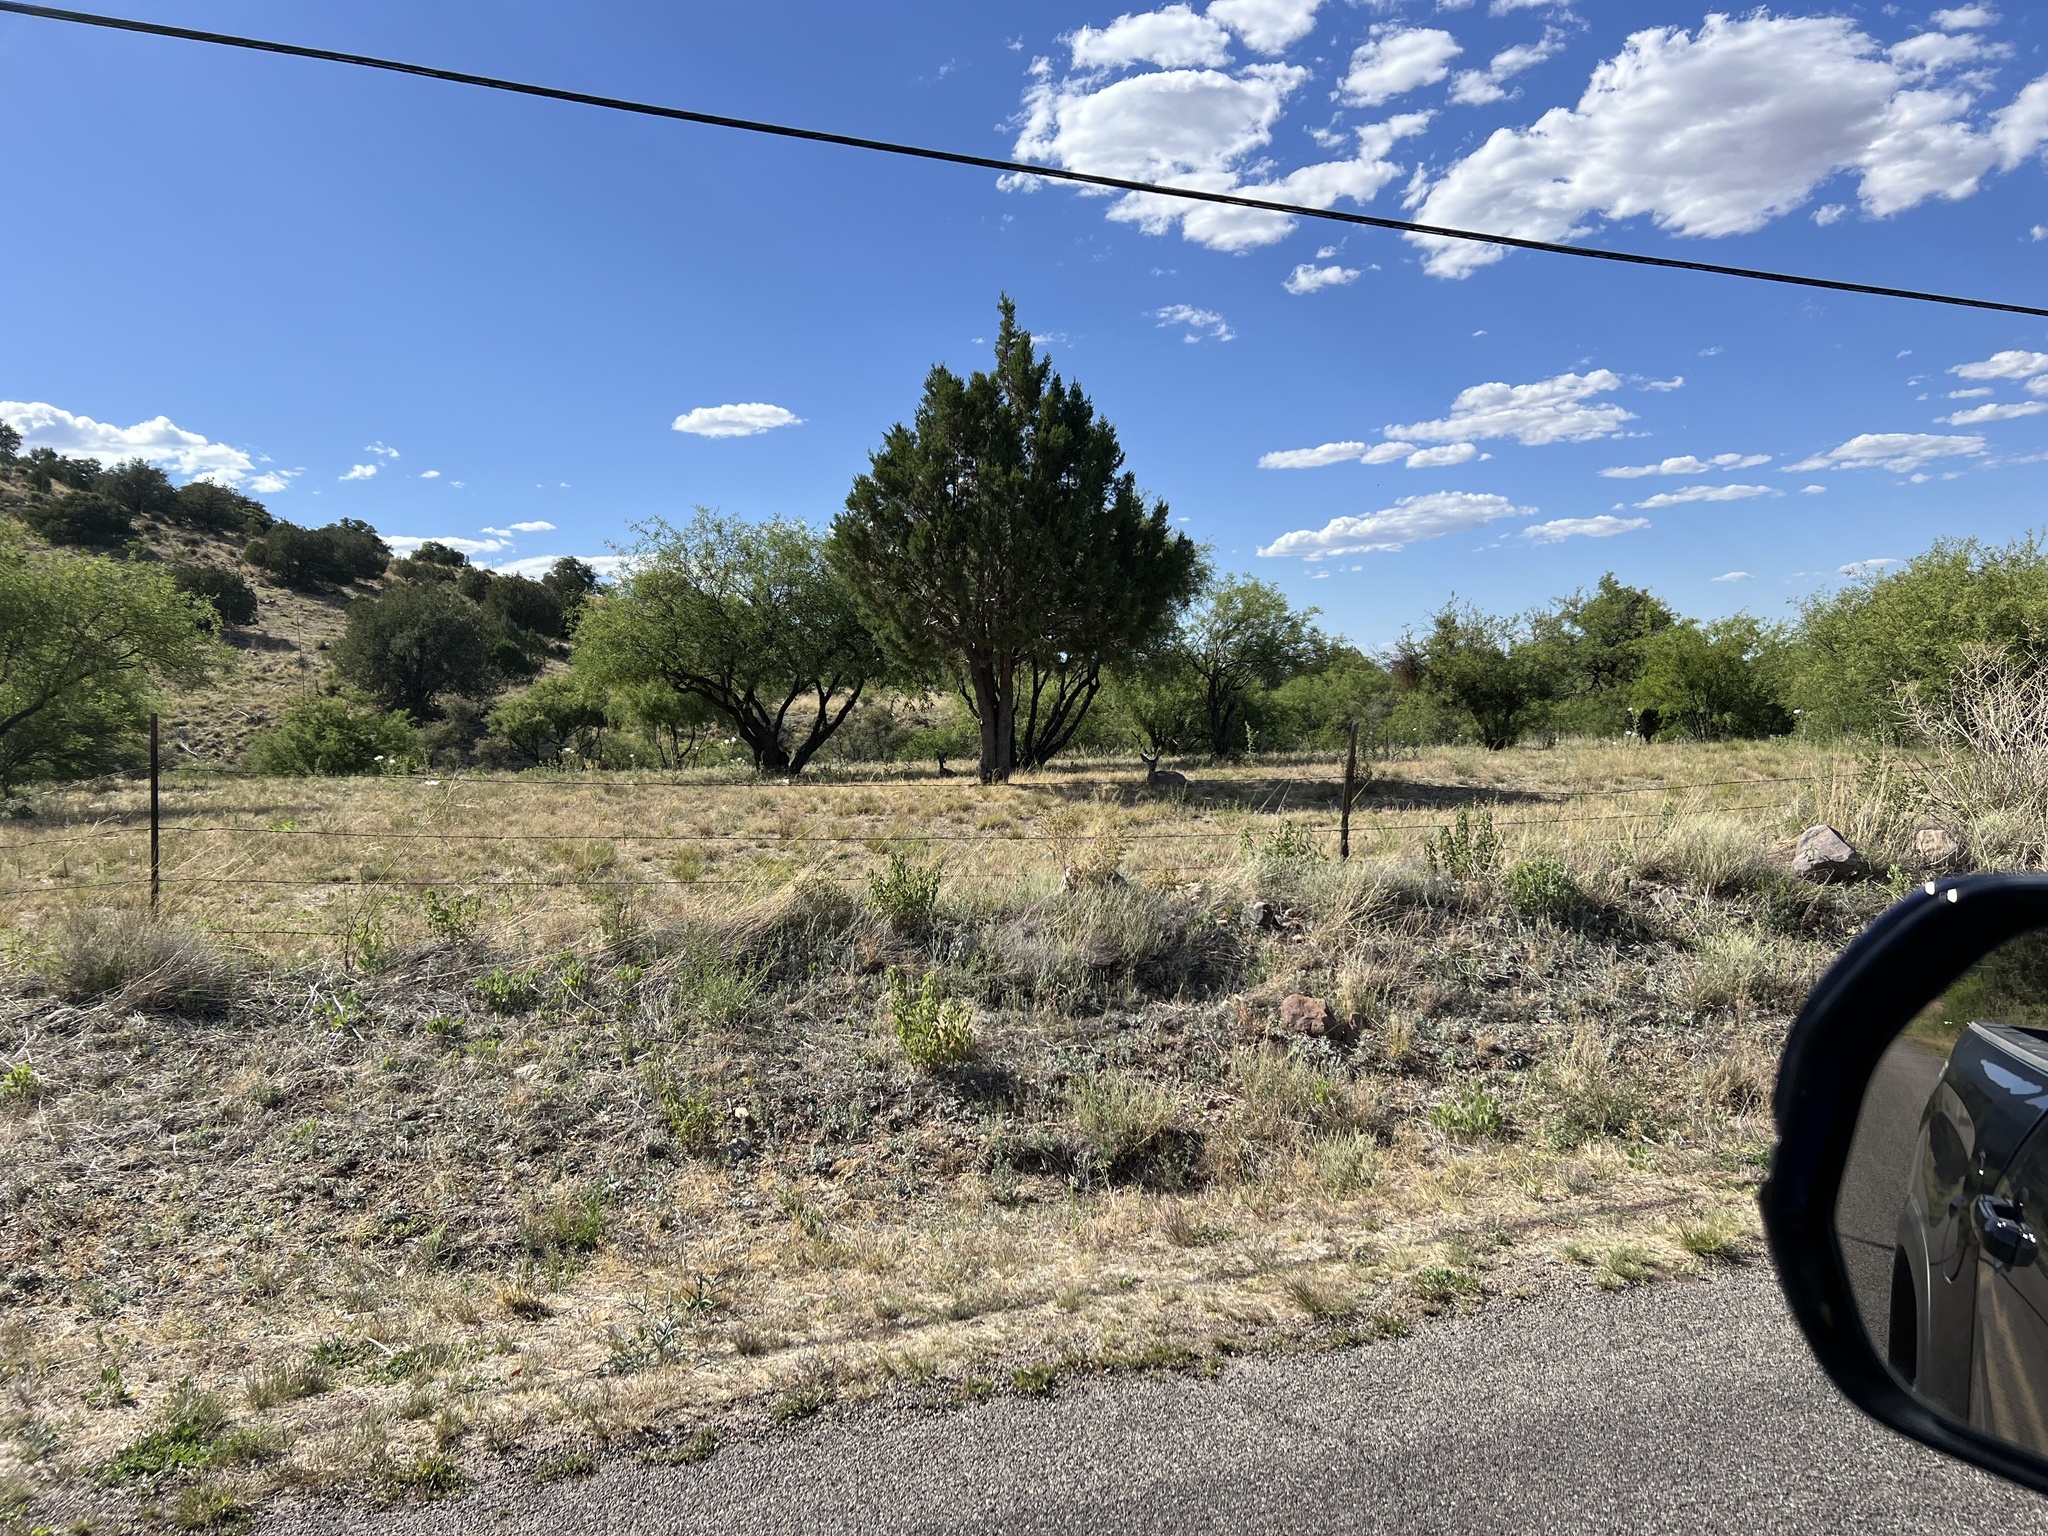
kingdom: Animalia
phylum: Chordata
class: Mammalia
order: Artiodactyla
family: Cervidae
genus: Odocoileus
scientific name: Odocoileus virginianus
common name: White-tailed deer
